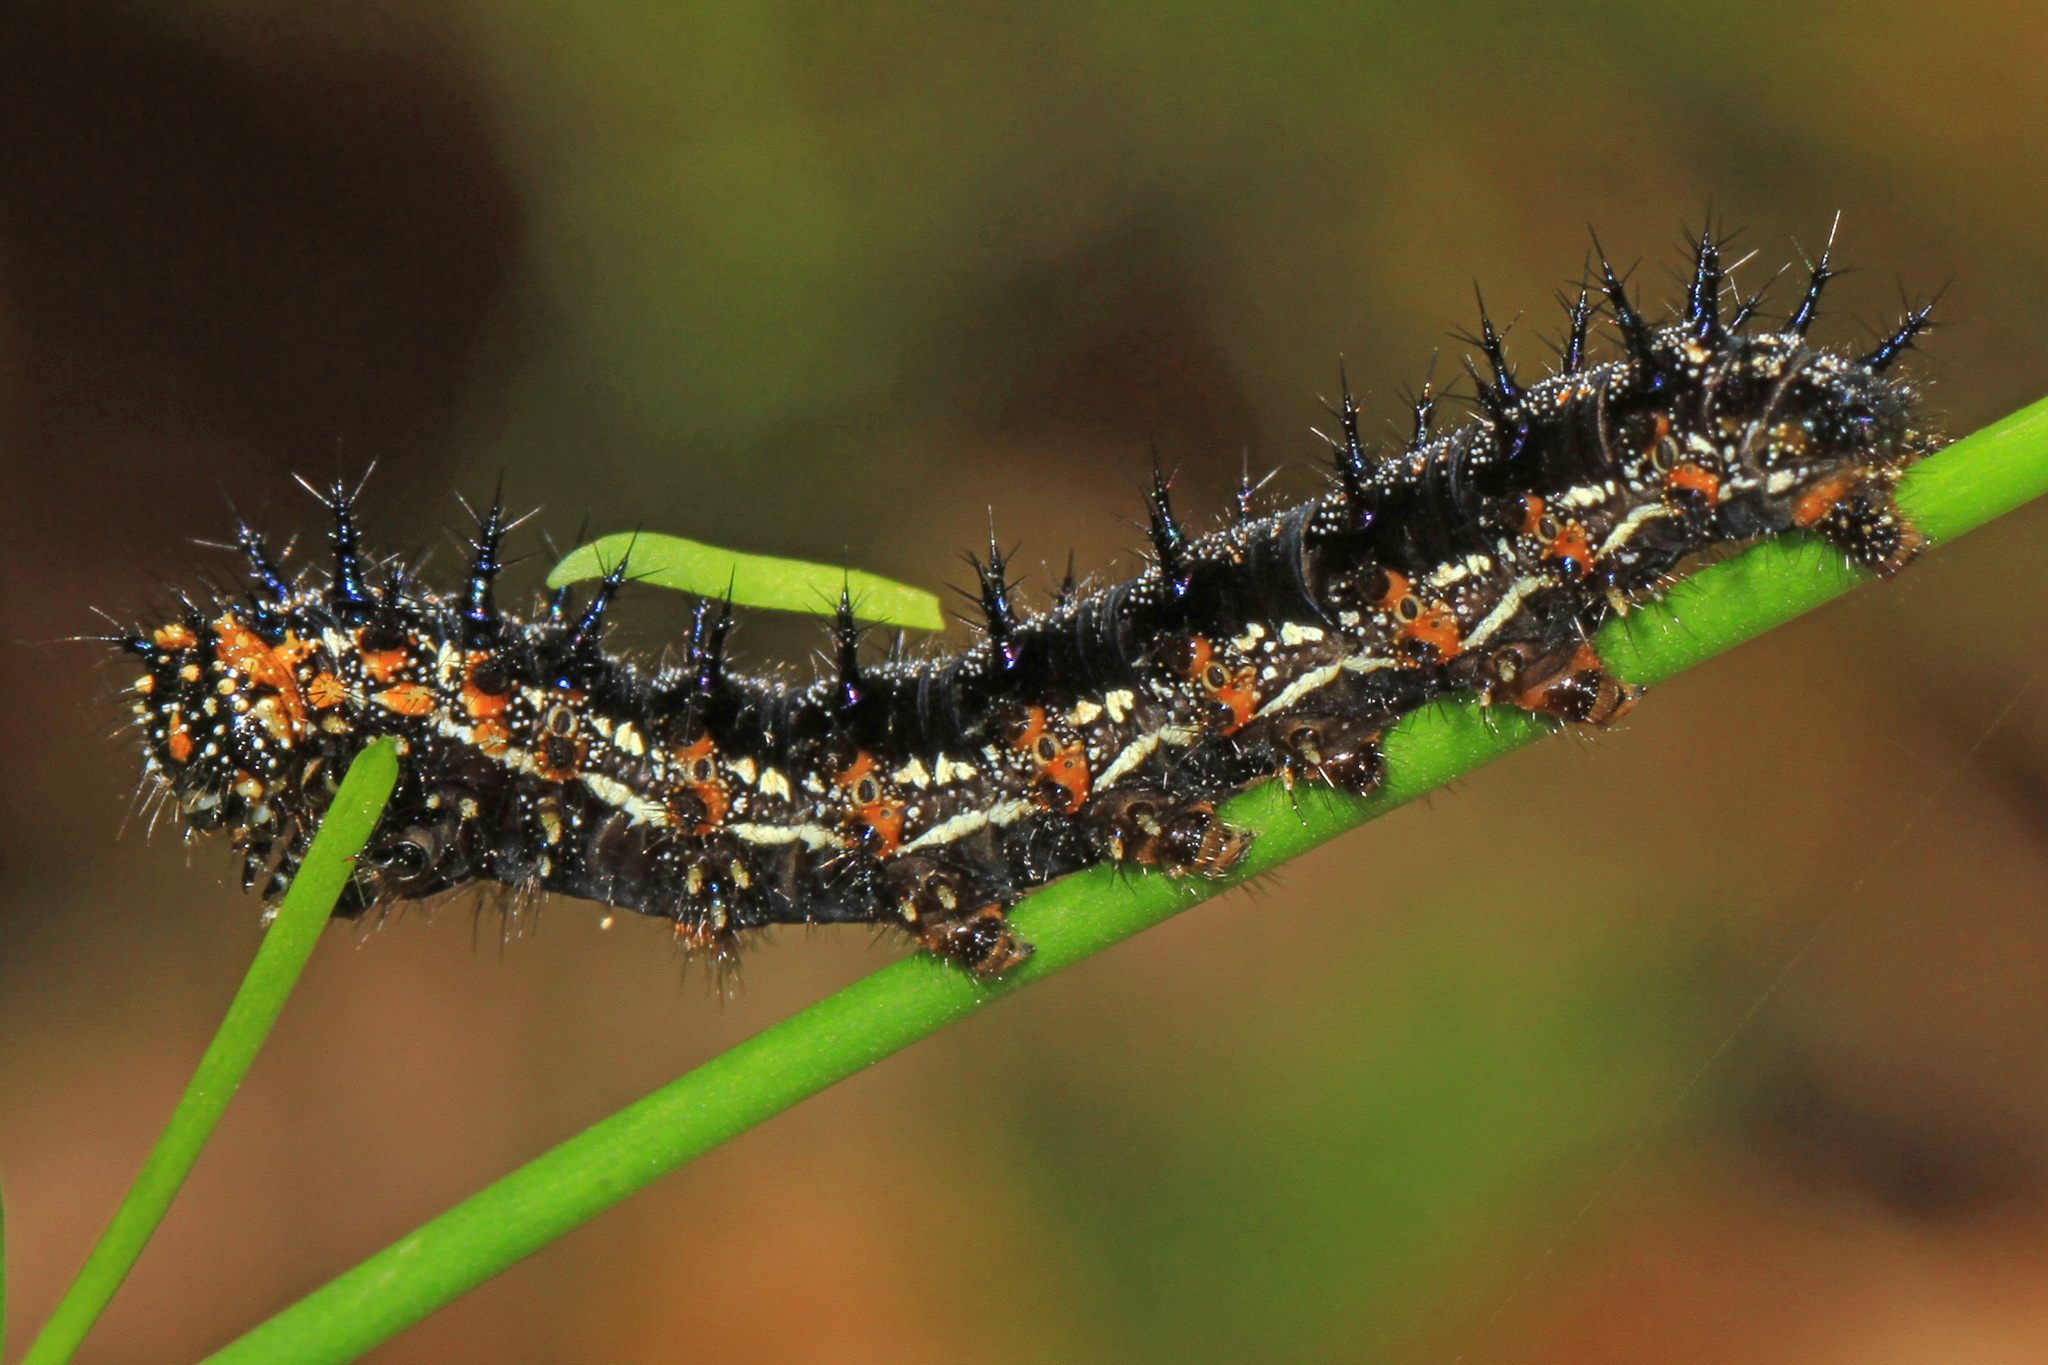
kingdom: Animalia
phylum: Arthropoda
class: Insecta
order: Lepidoptera
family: Nymphalidae
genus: Junonia
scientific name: Junonia coenia
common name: Common buckeye
